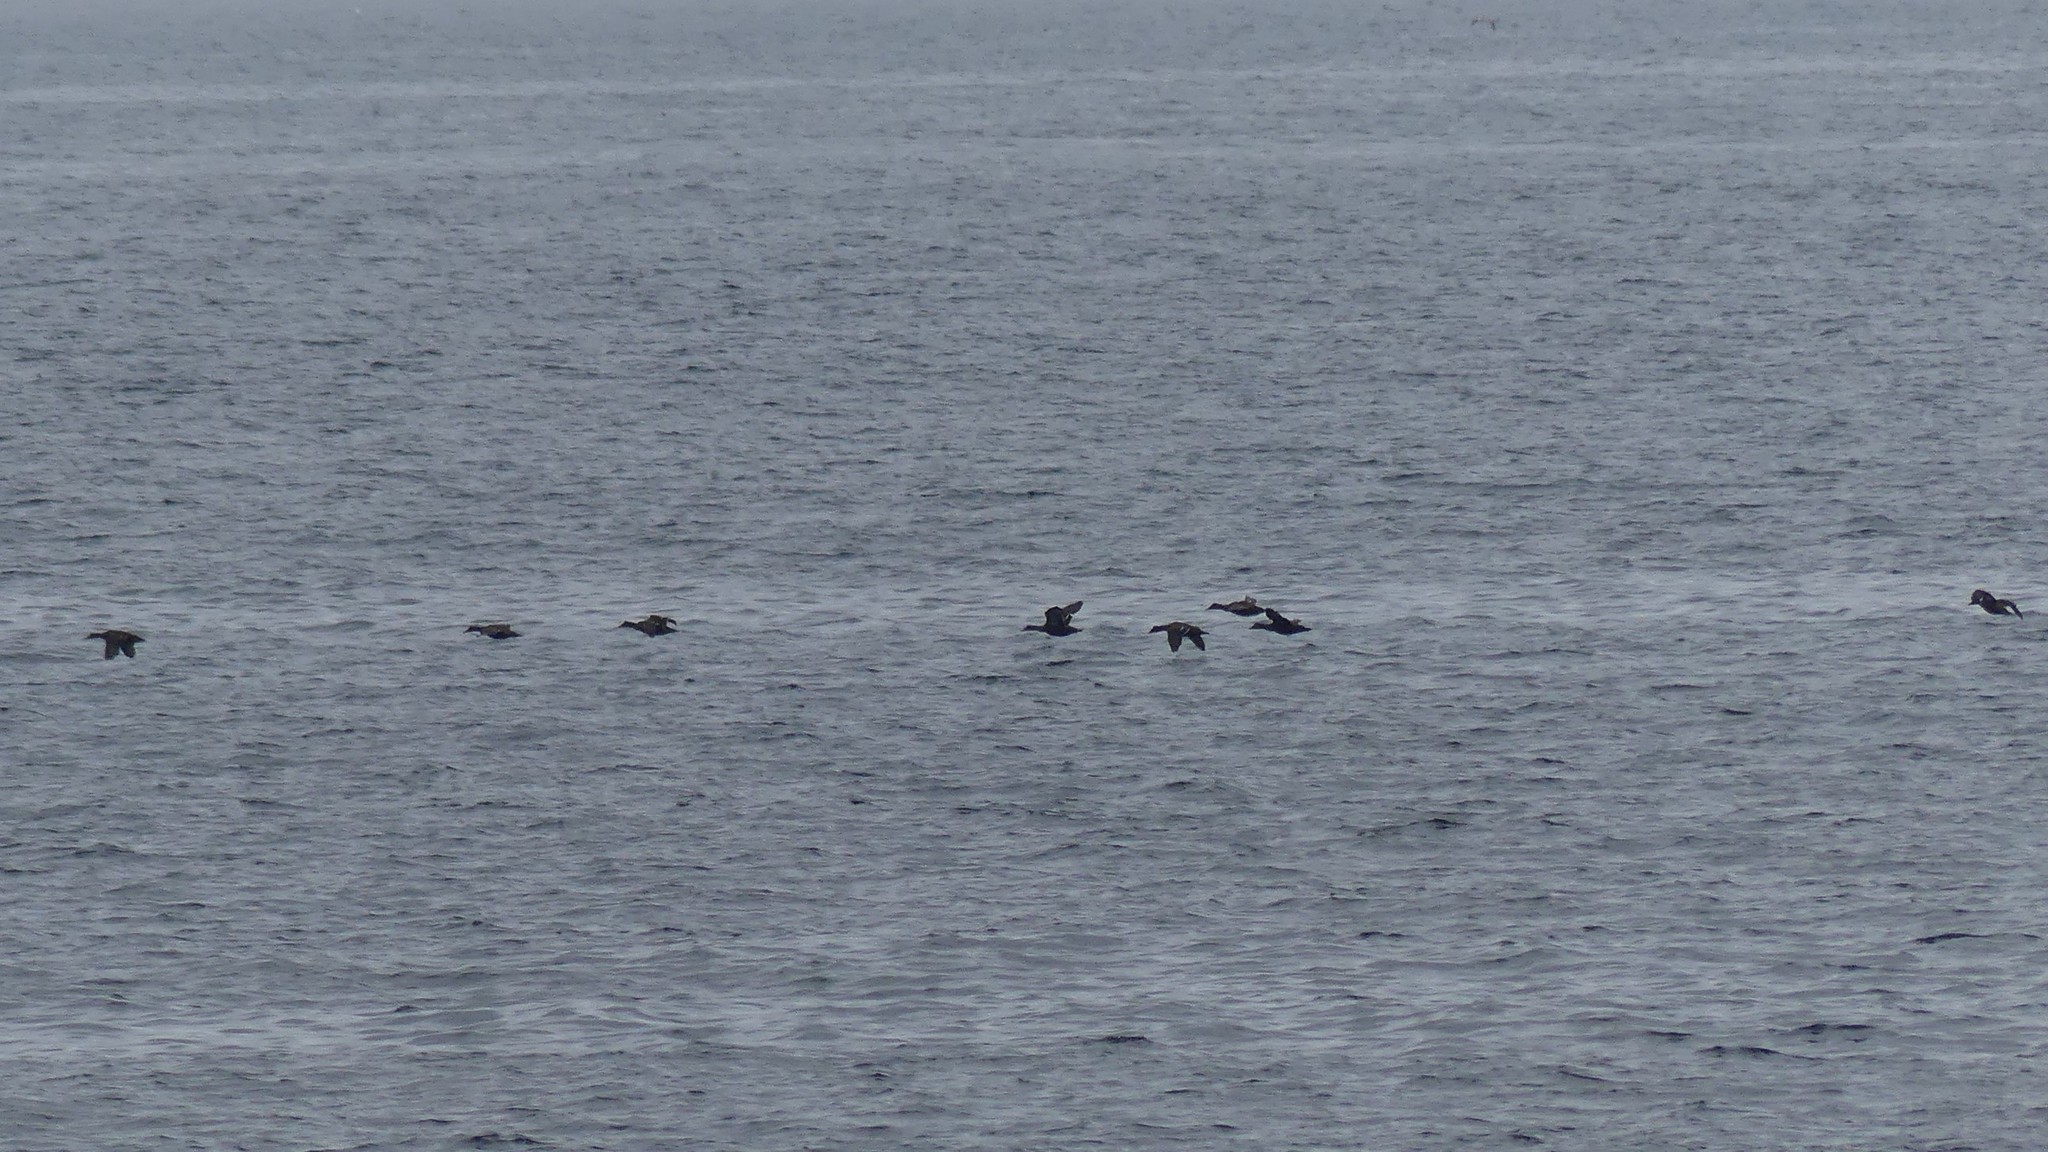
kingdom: Animalia
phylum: Chordata
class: Aves
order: Anseriformes
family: Anatidae
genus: Somateria
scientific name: Somateria mollissima
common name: Common eider
